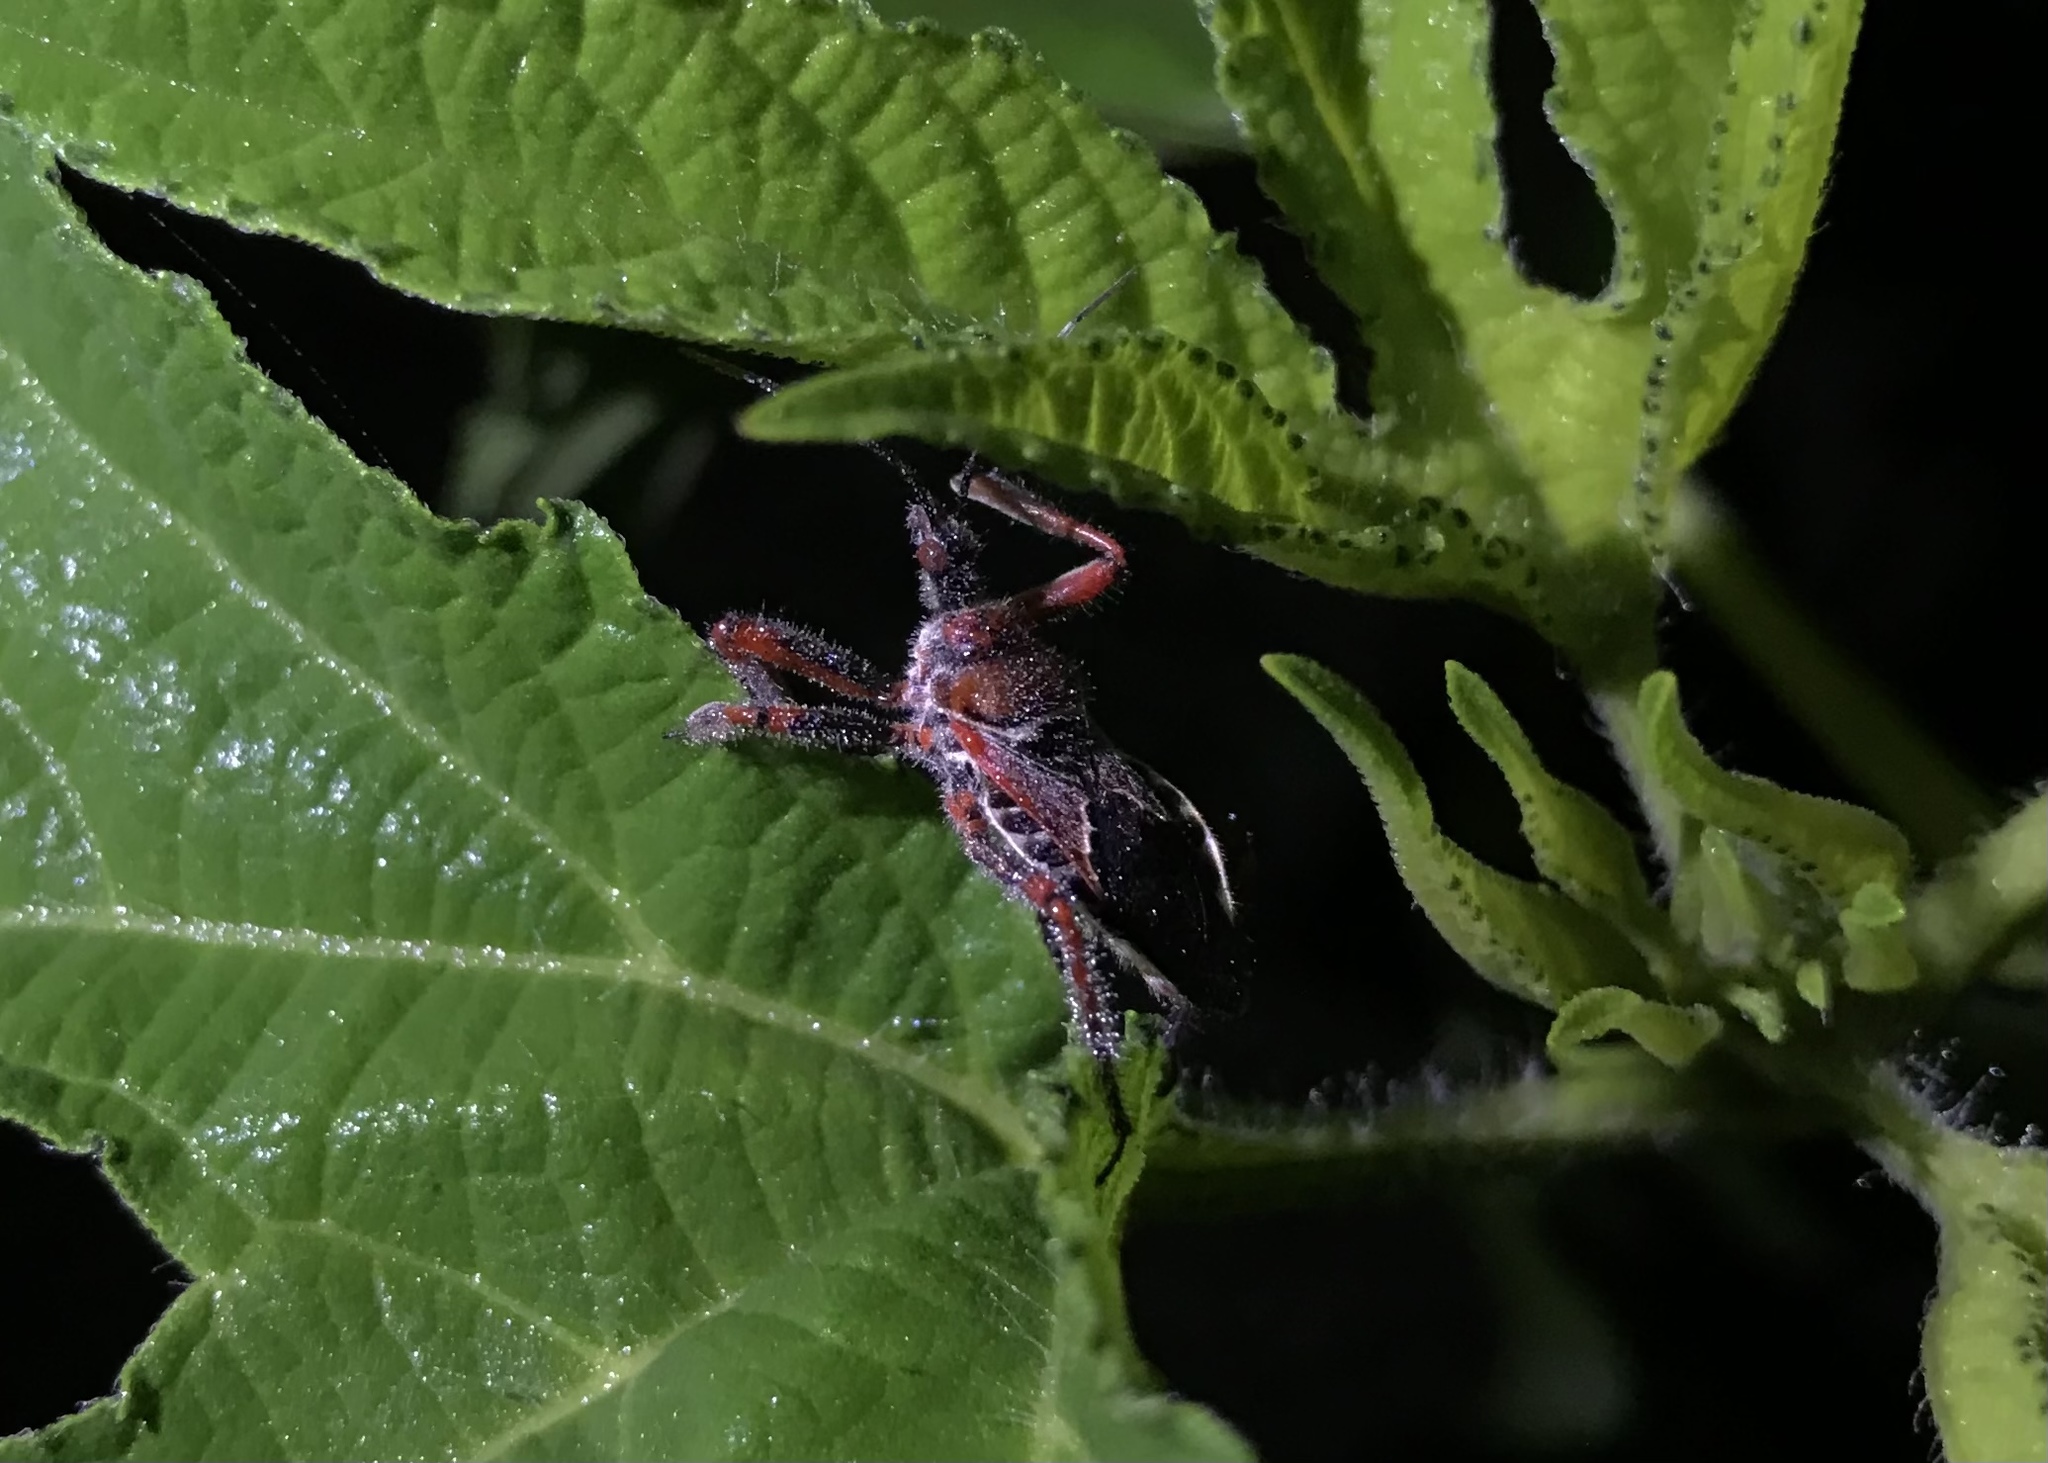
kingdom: Animalia
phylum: Arthropoda
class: Insecta
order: Hemiptera
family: Reduviidae
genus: Apiomerus
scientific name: Apiomerus spissipes
